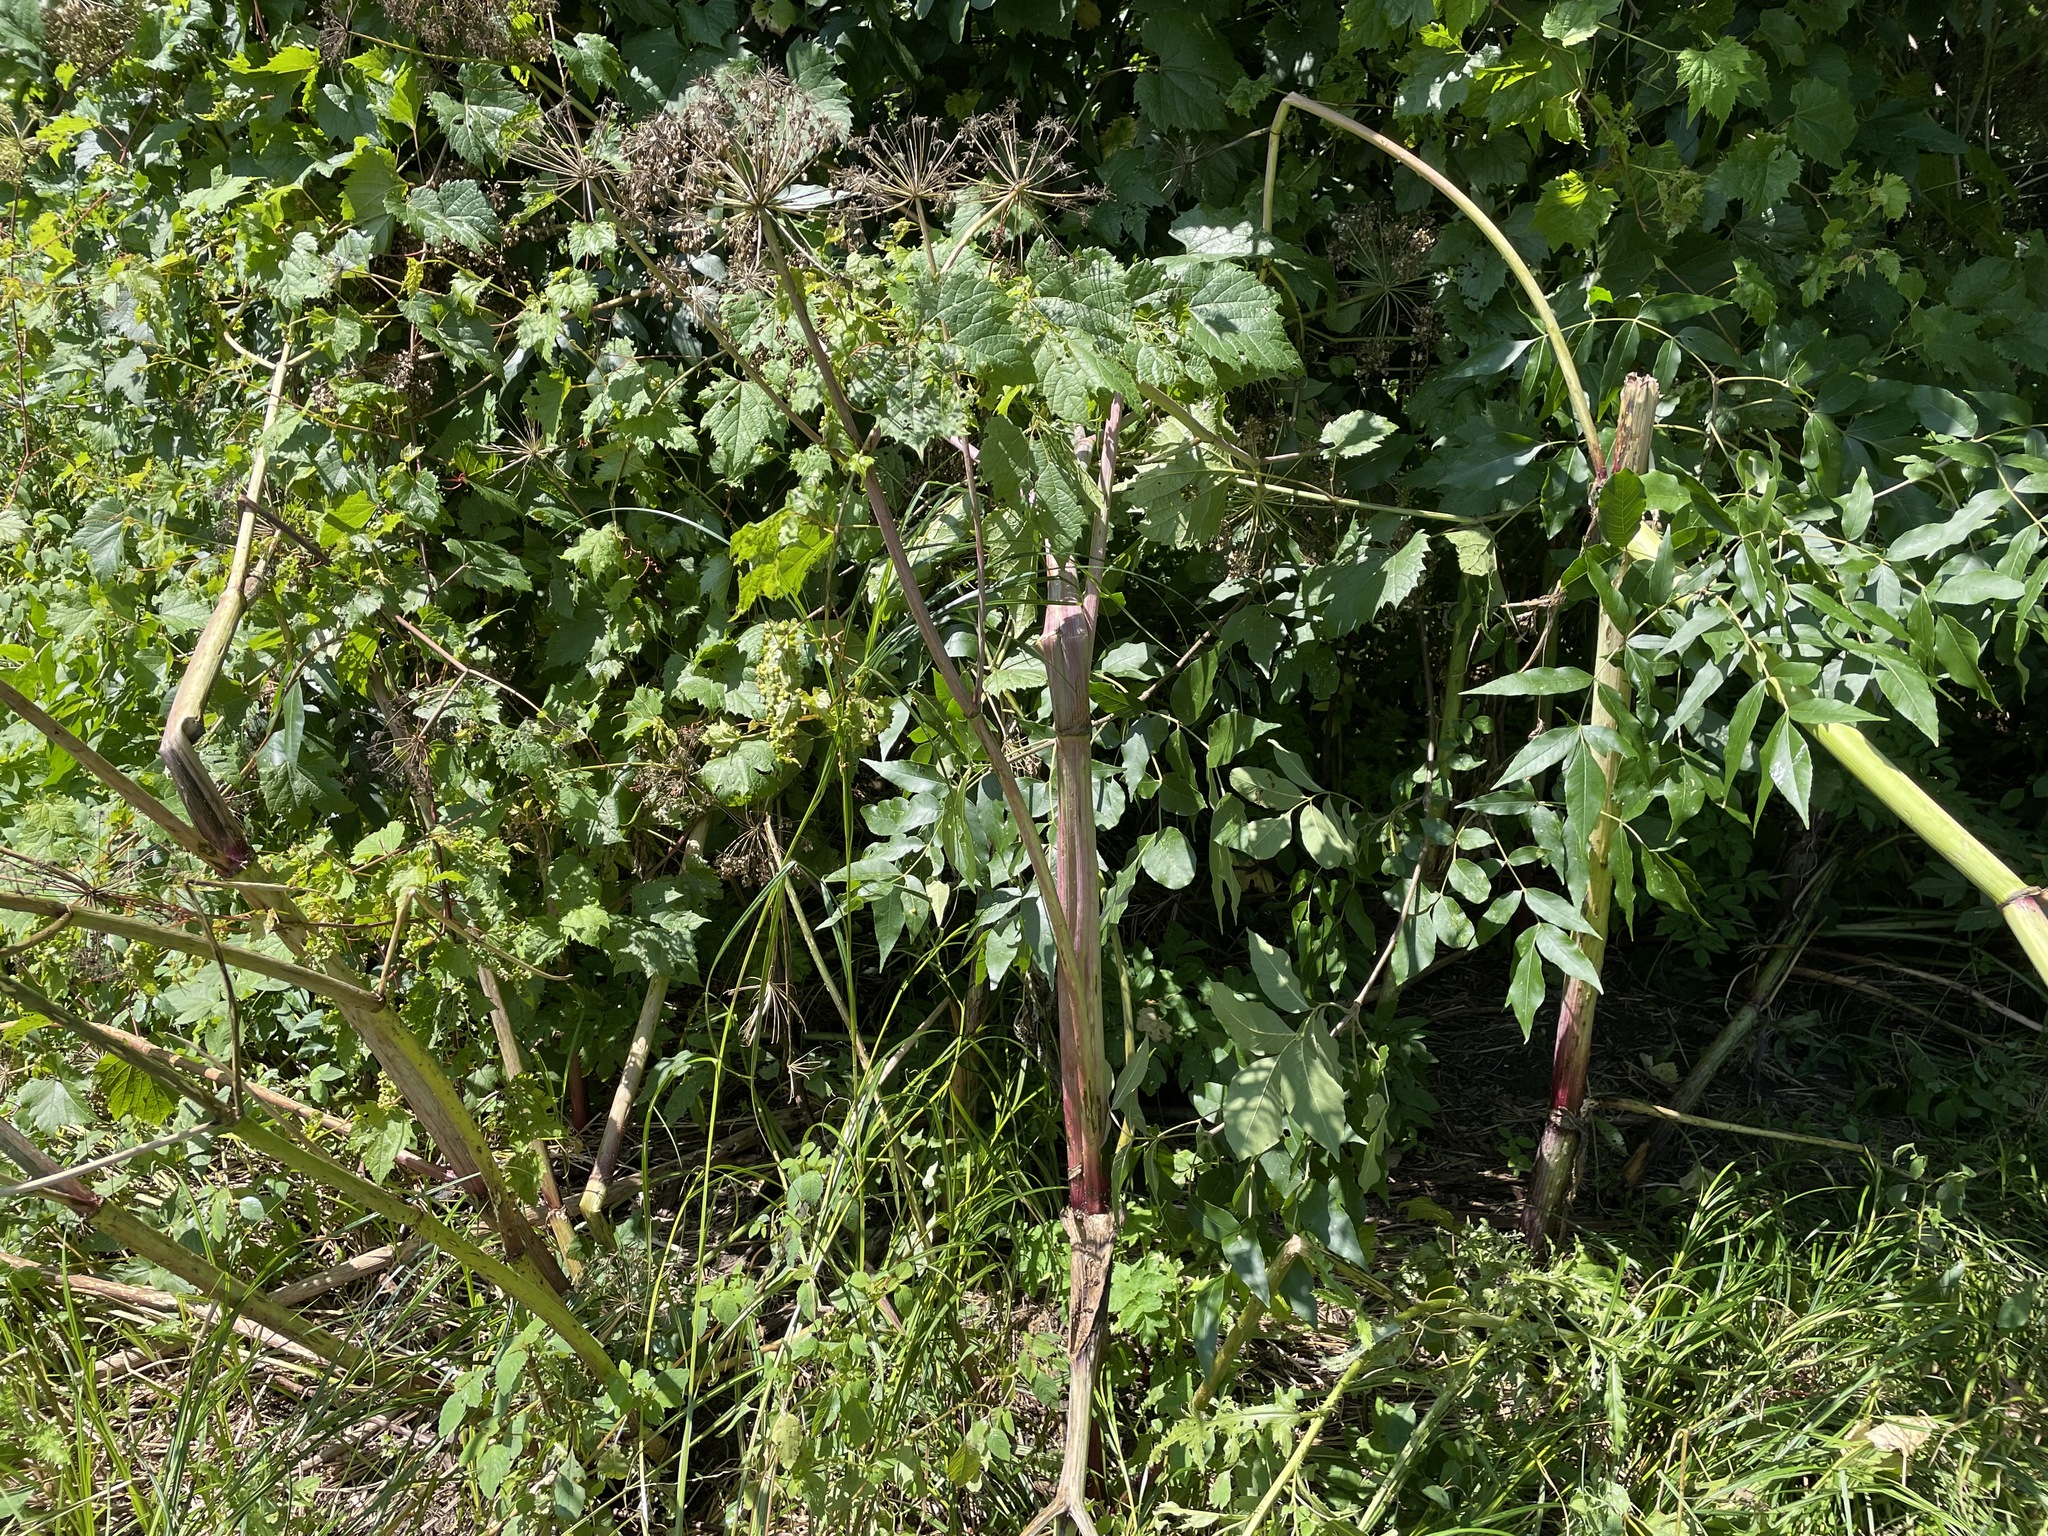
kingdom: Plantae
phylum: Tracheophyta
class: Magnoliopsida
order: Apiales
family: Apiaceae
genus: Angelica
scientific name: Angelica atropurpurea
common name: Great angelica
